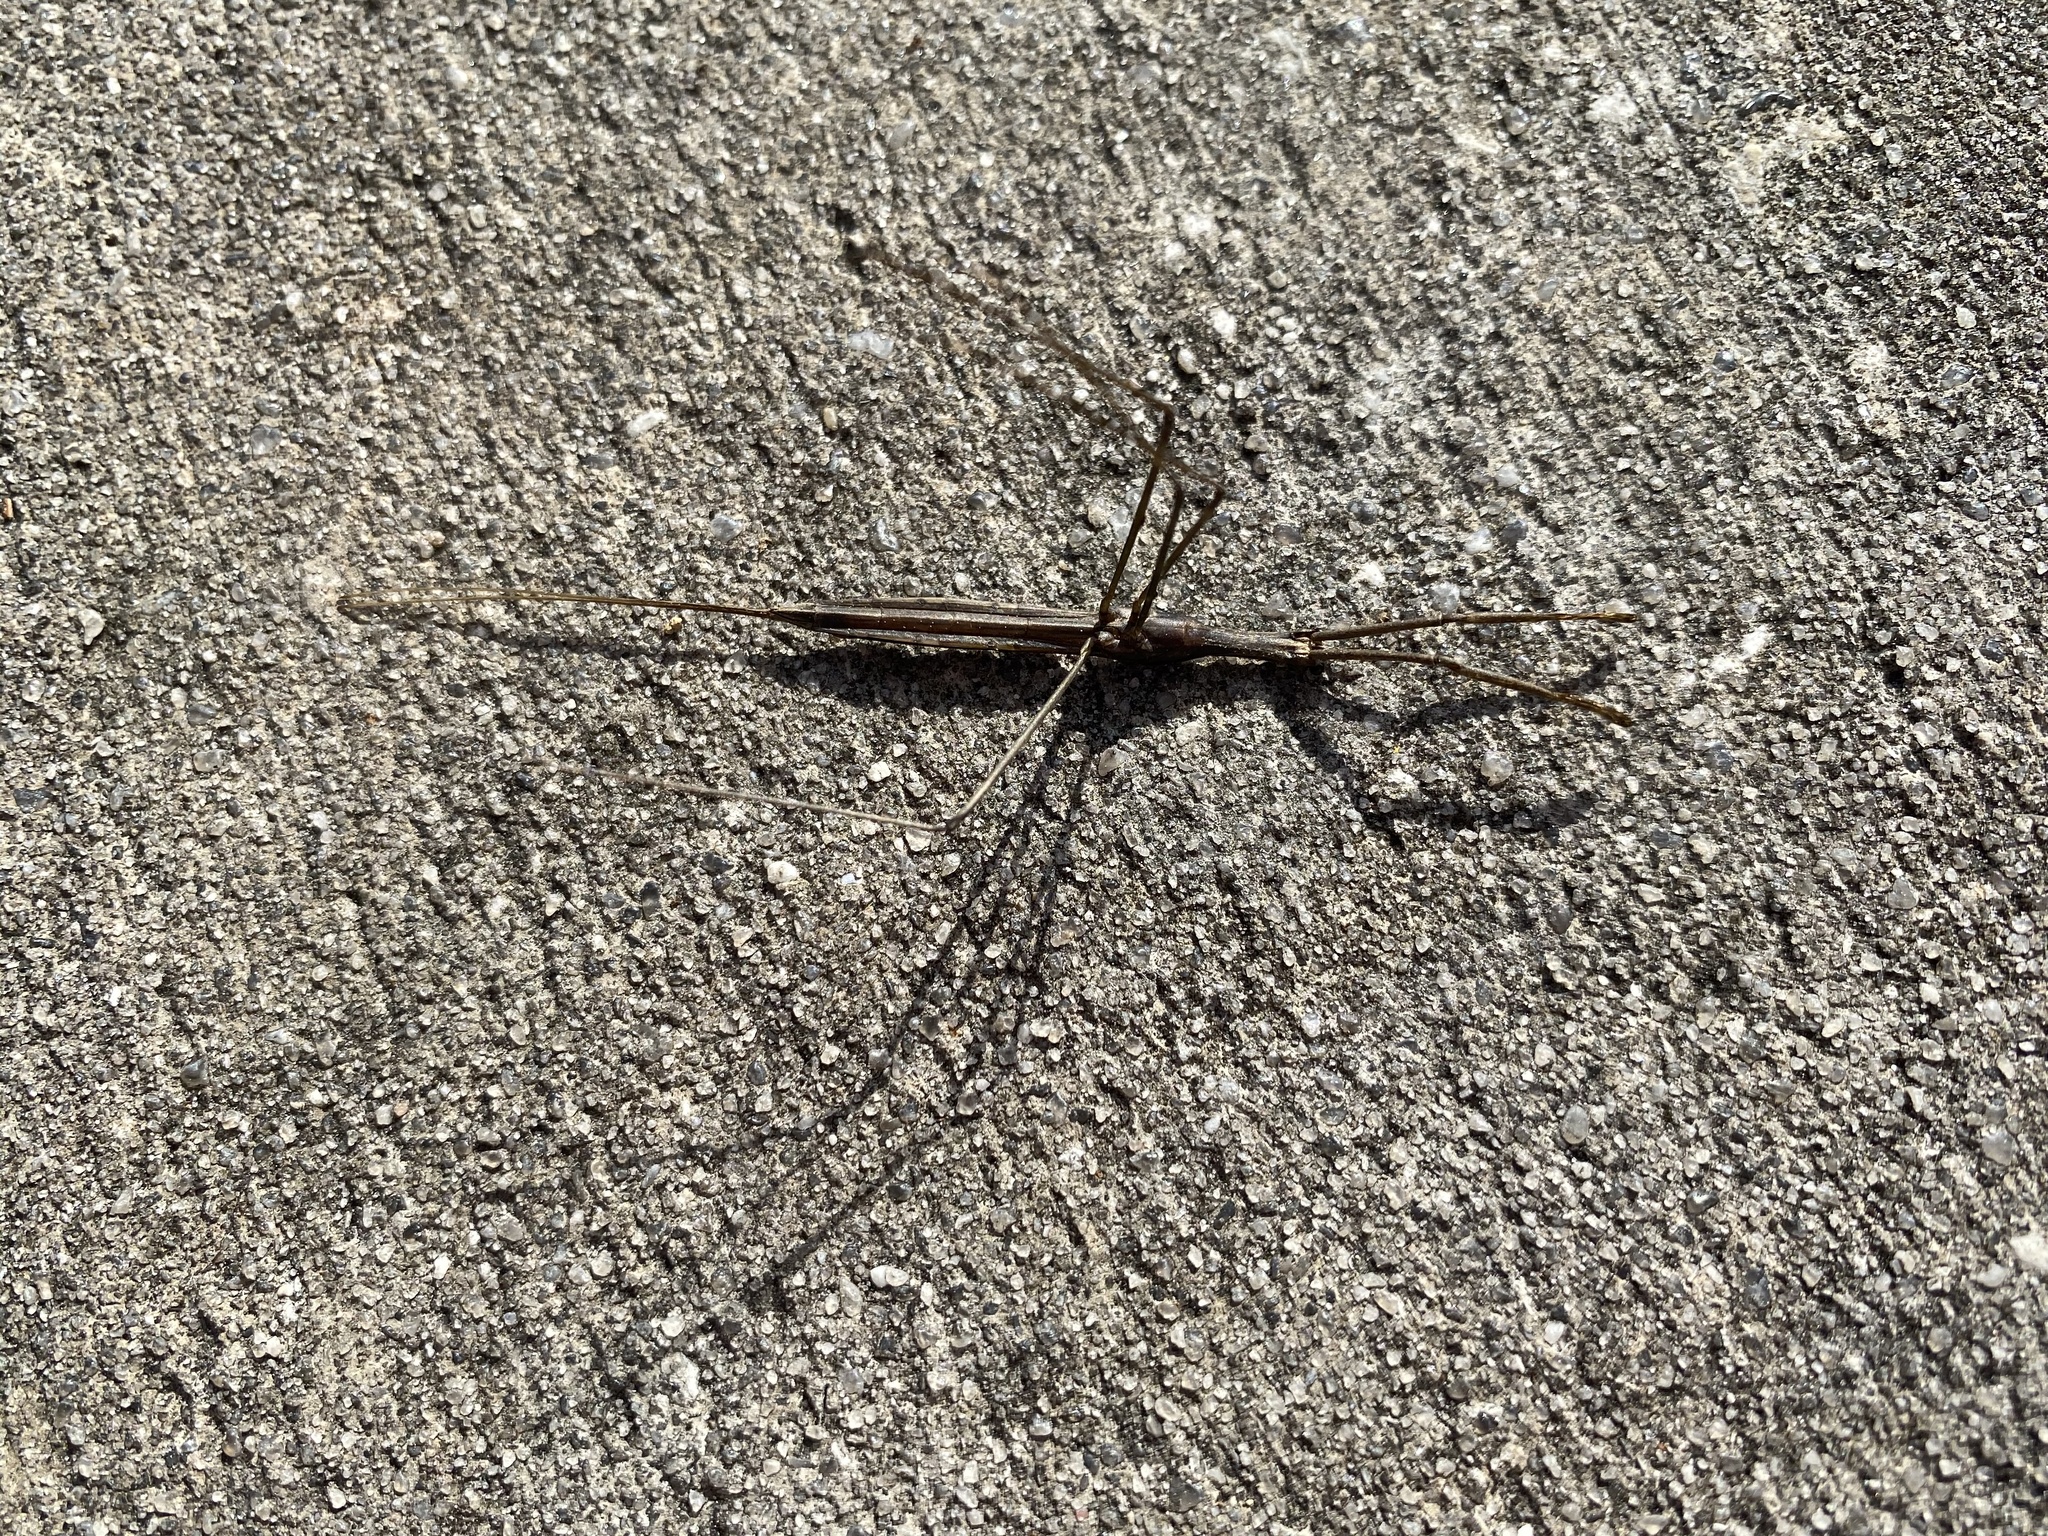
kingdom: Animalia
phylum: Arthropoda
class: Insecta
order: Hemiptera
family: Nepidae
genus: Ranatra
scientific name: Ranatra
